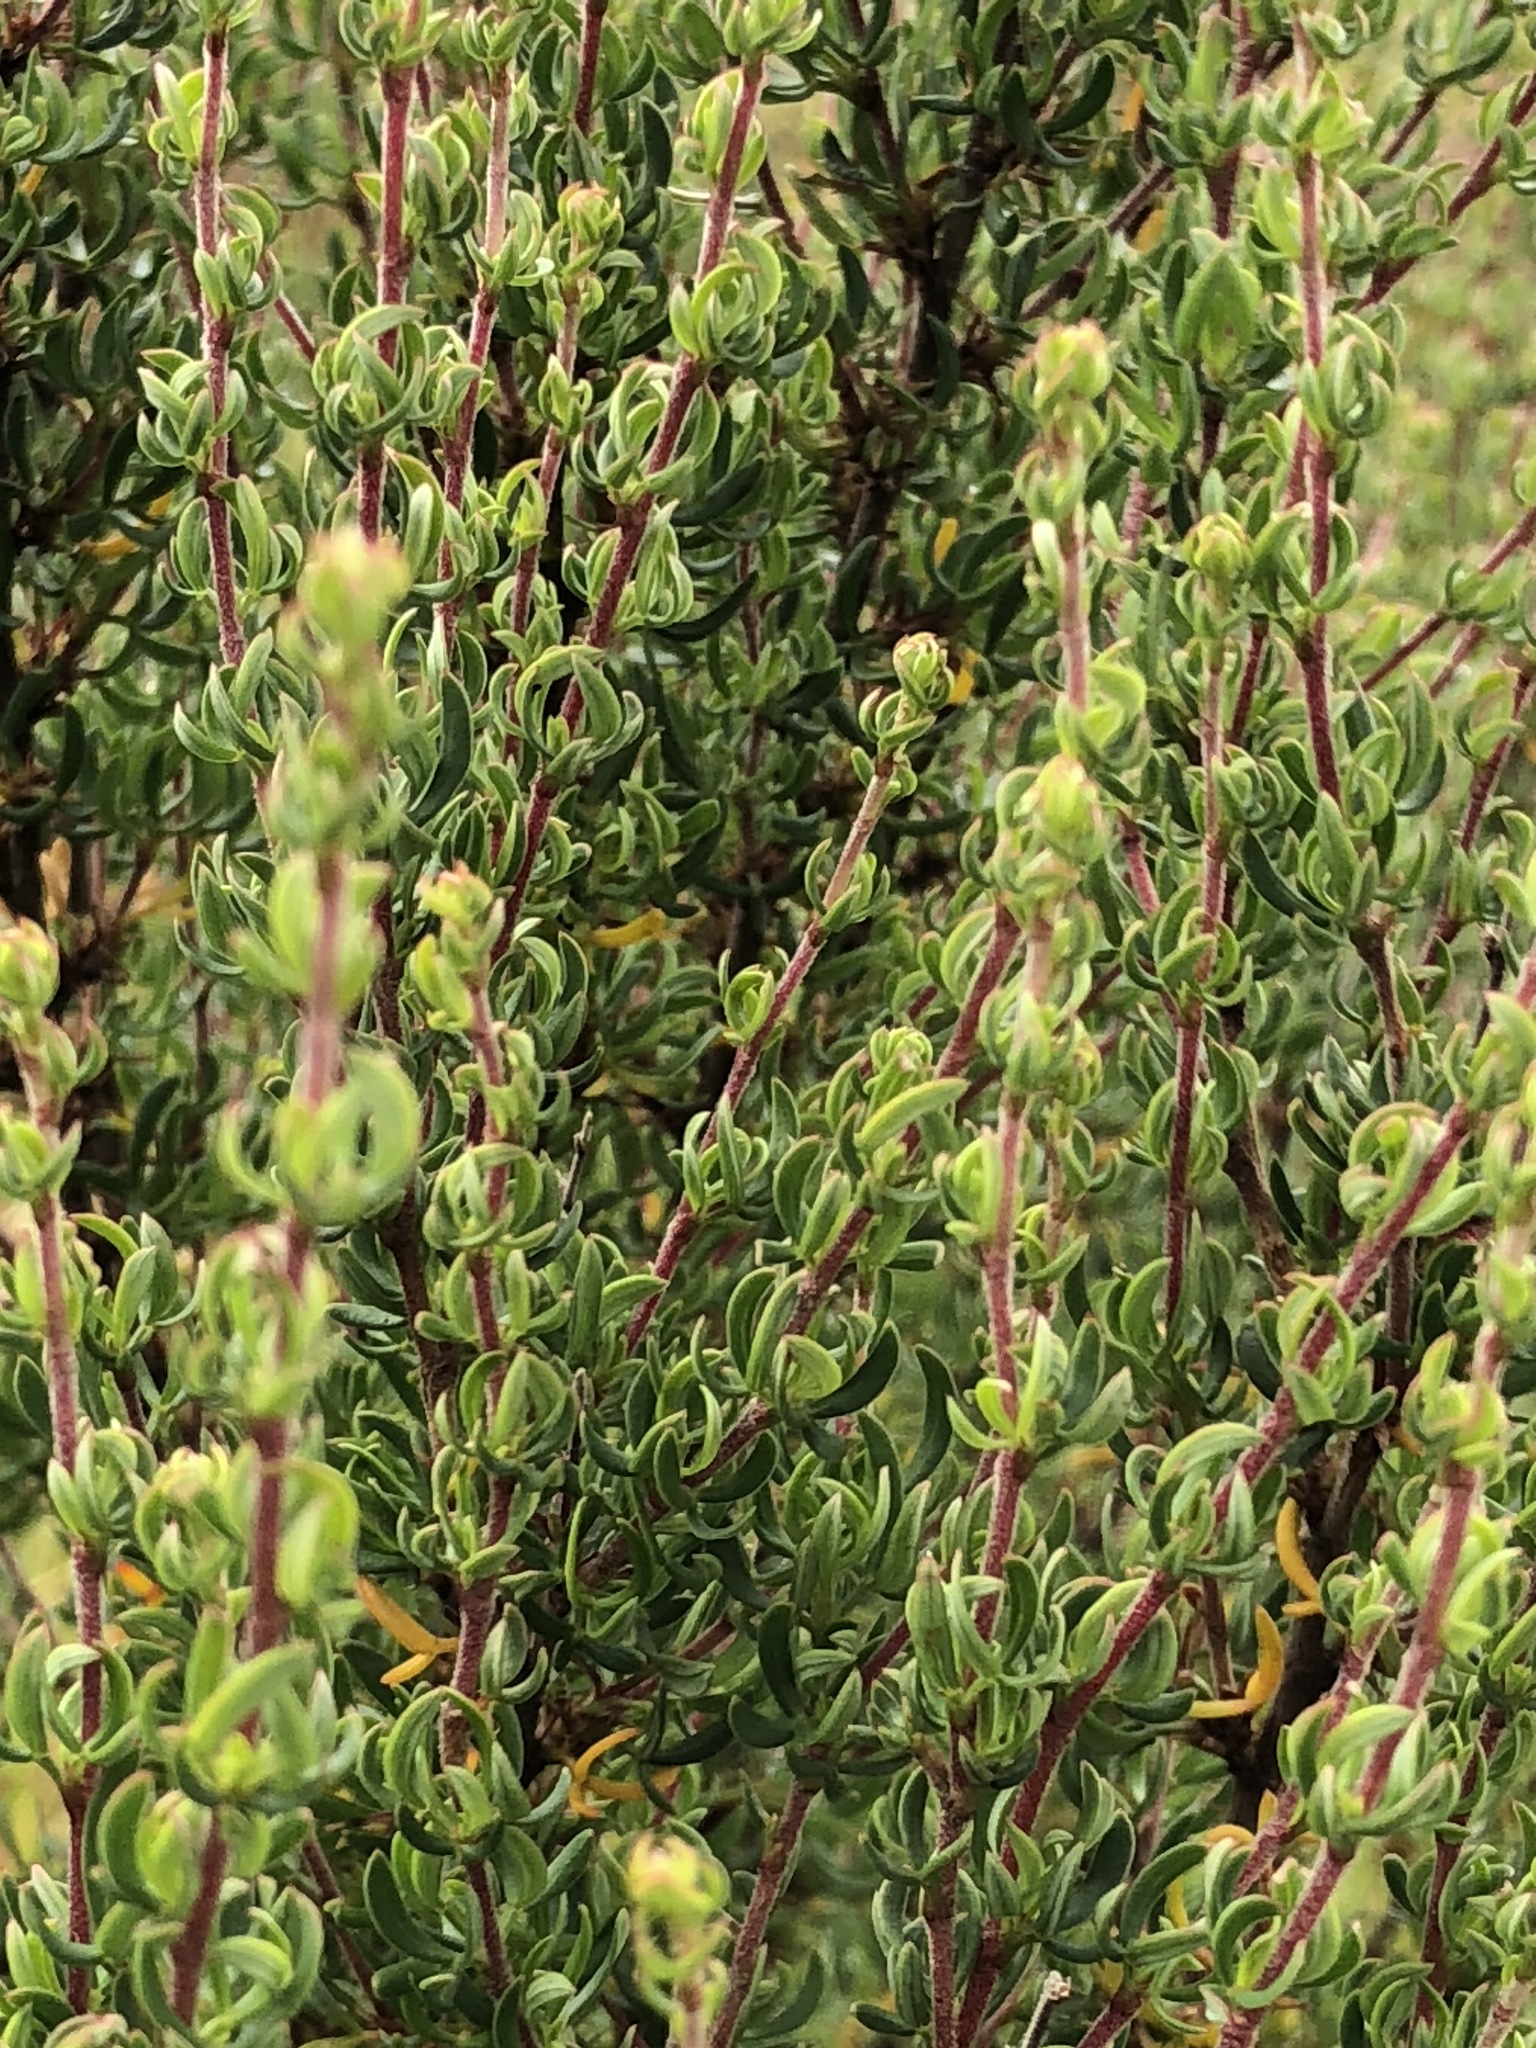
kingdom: Plantae
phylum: Tracheophyta
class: Magnoliopsida
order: Rosales
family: Rosaceae
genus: Cliffortia
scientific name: Cliffortia falcata
